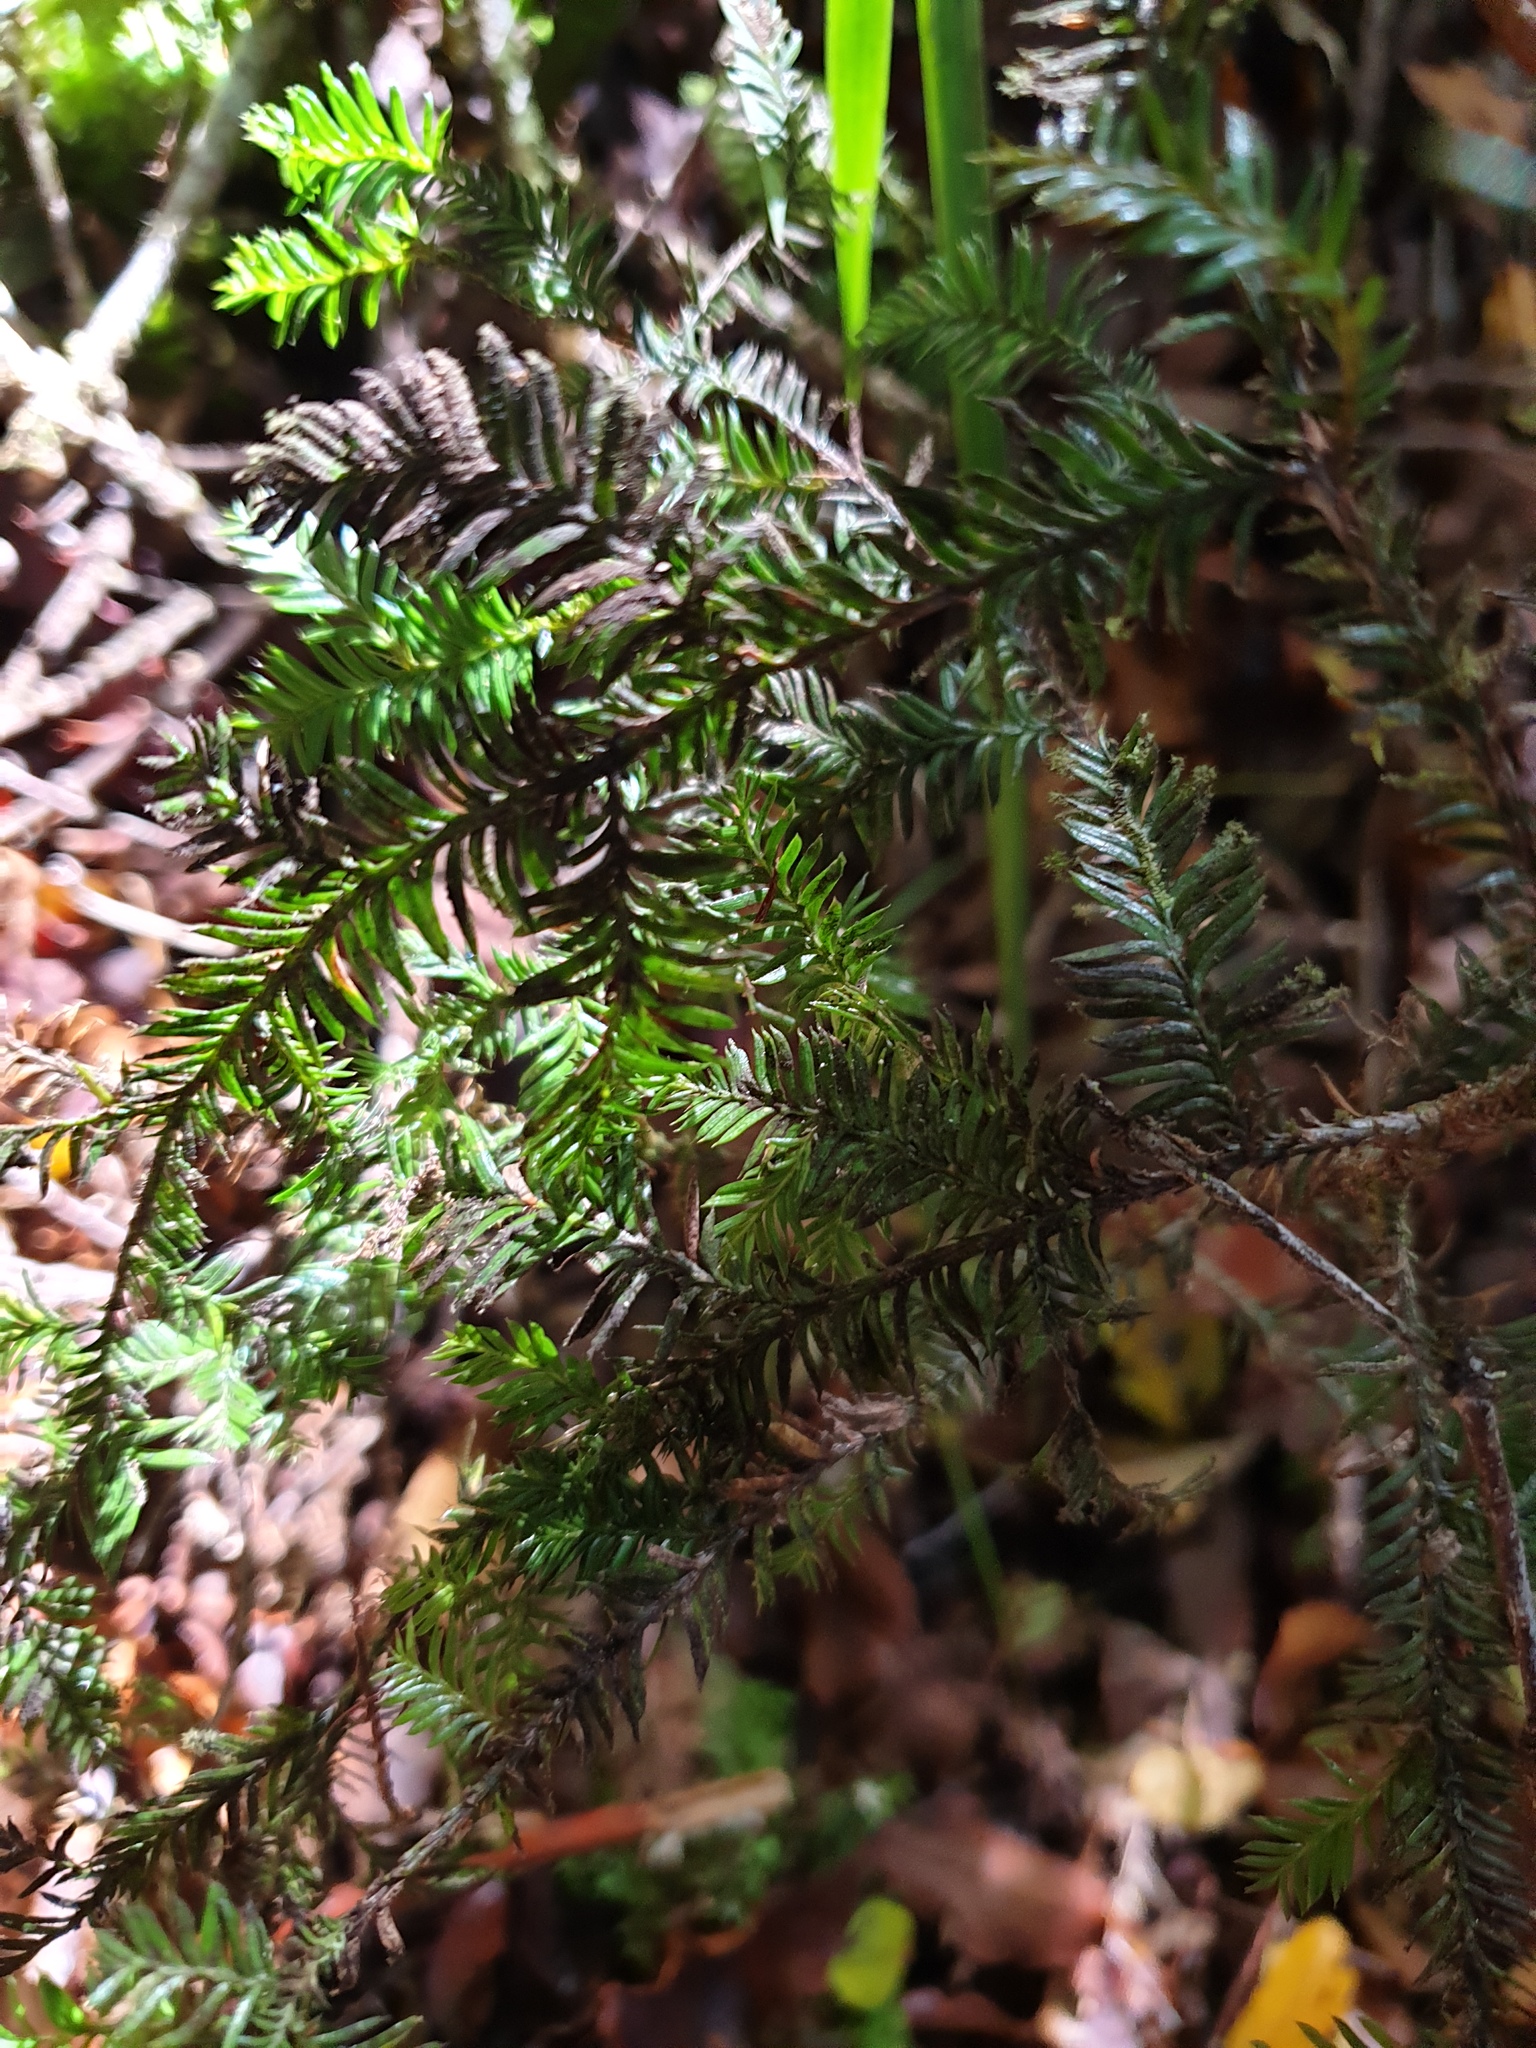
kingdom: Plantae
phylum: Tracheophyta
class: Pinopsida
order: Pinales
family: Podocarpaceae
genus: Prumnopitys
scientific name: Prumnopitys ferruginea
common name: Brown pine
